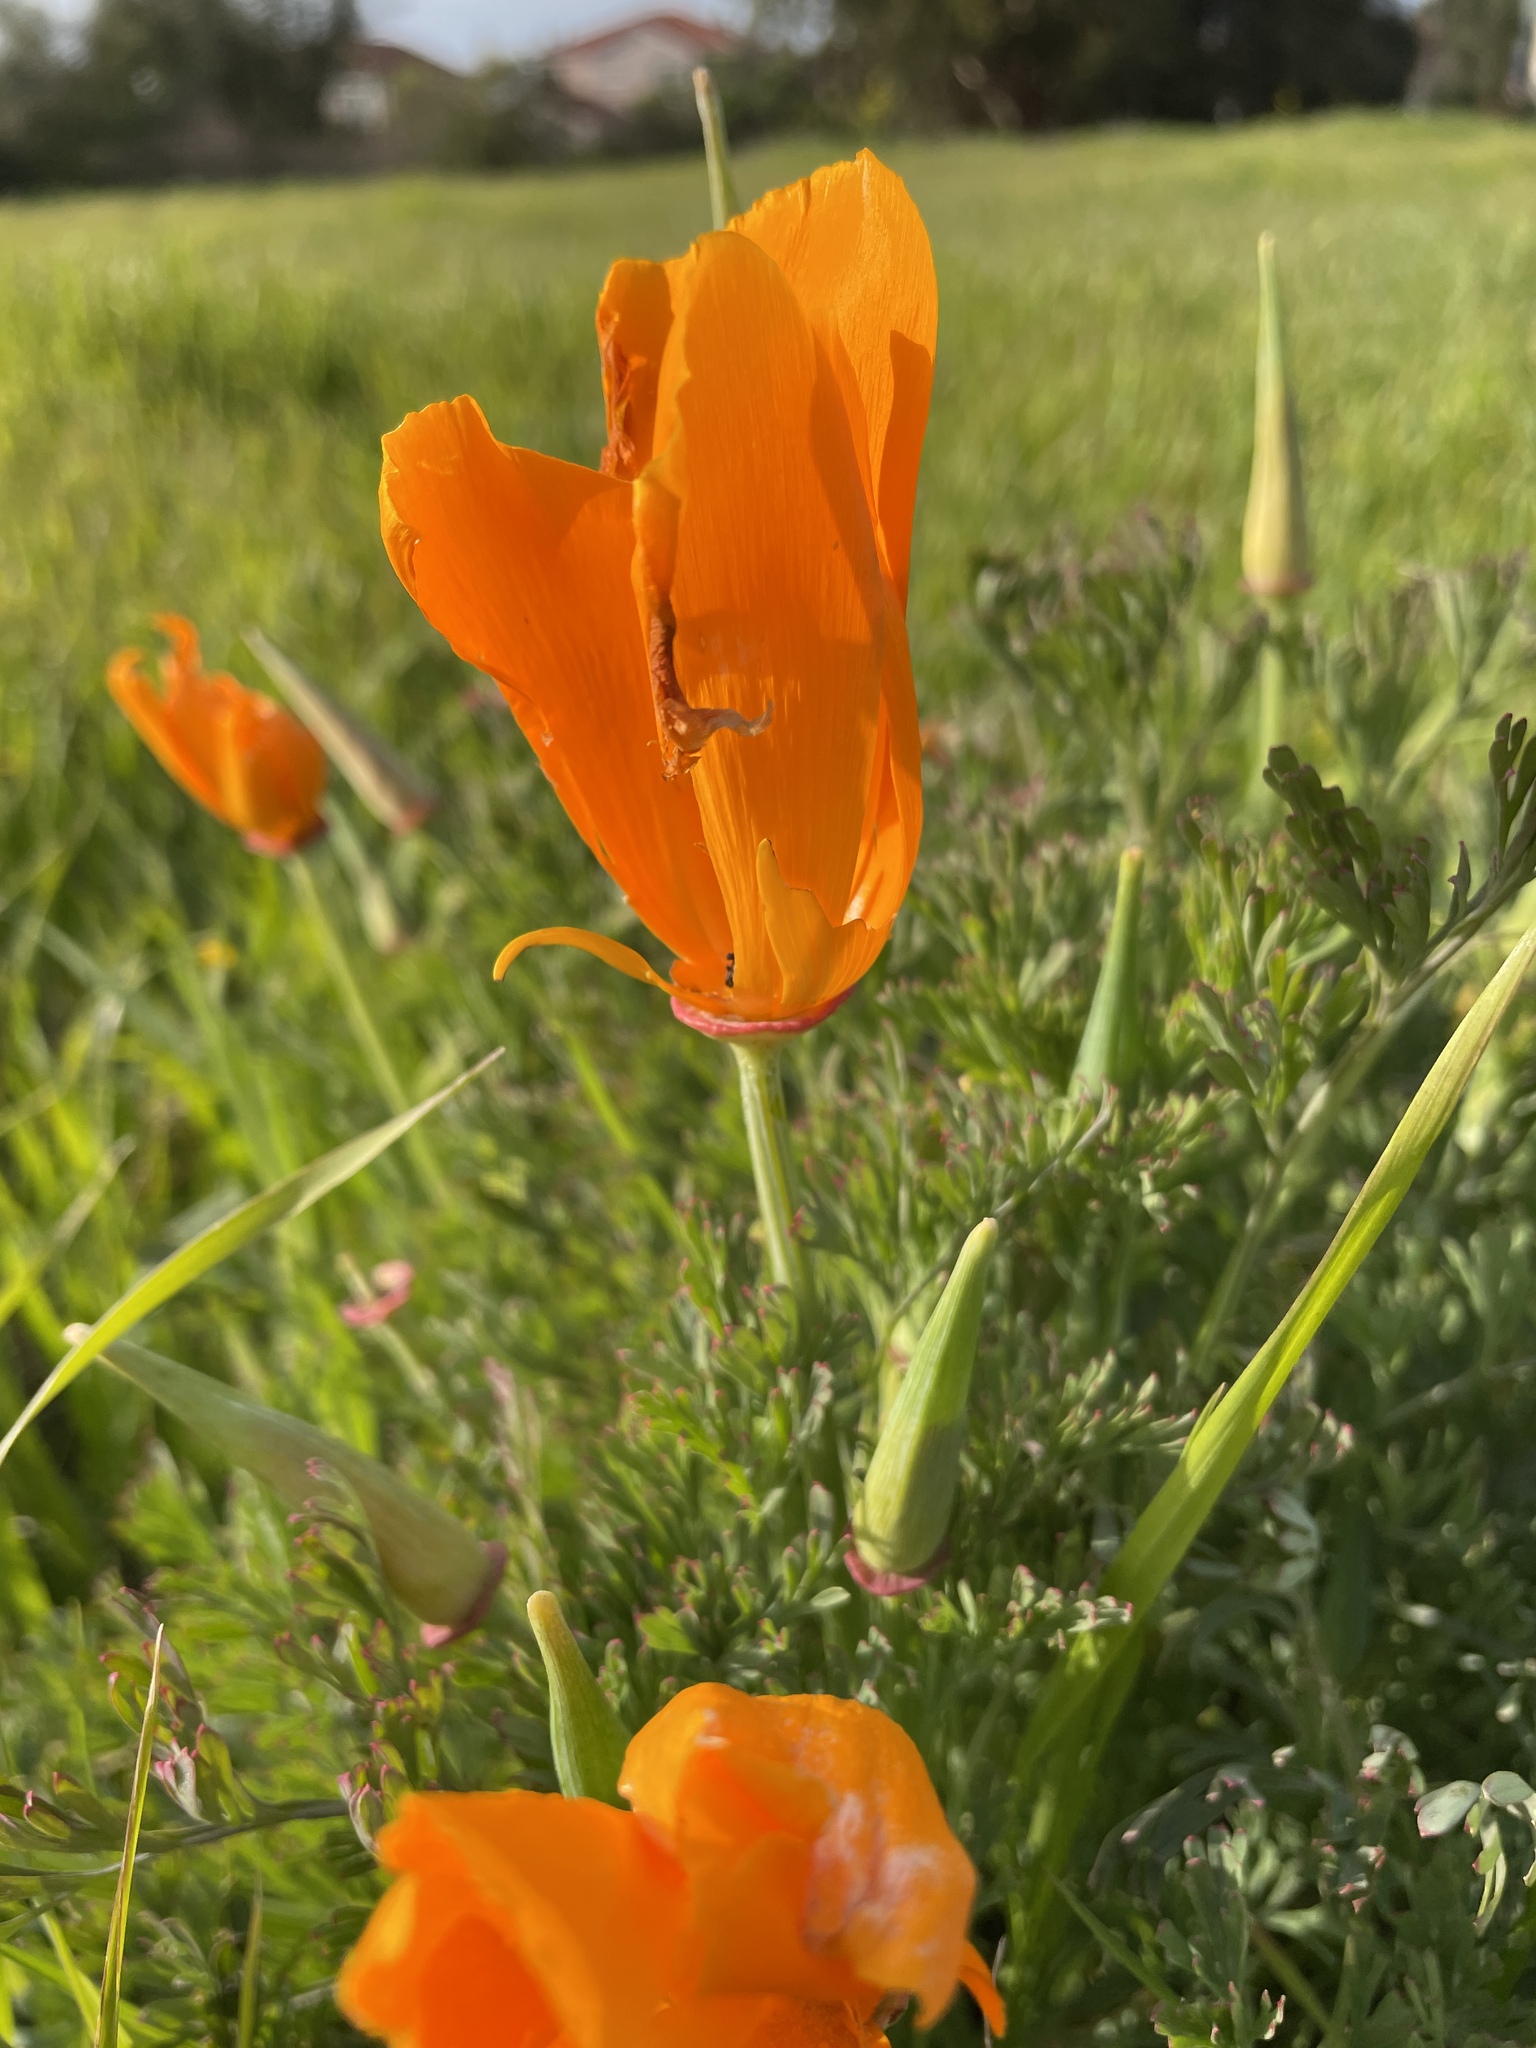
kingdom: Plantae
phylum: Tracheophyta
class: Magnoliopsida
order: Ranunculales
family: Papaveraceae
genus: Eschscholzia
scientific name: Eschscholzia californica
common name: California poppy
